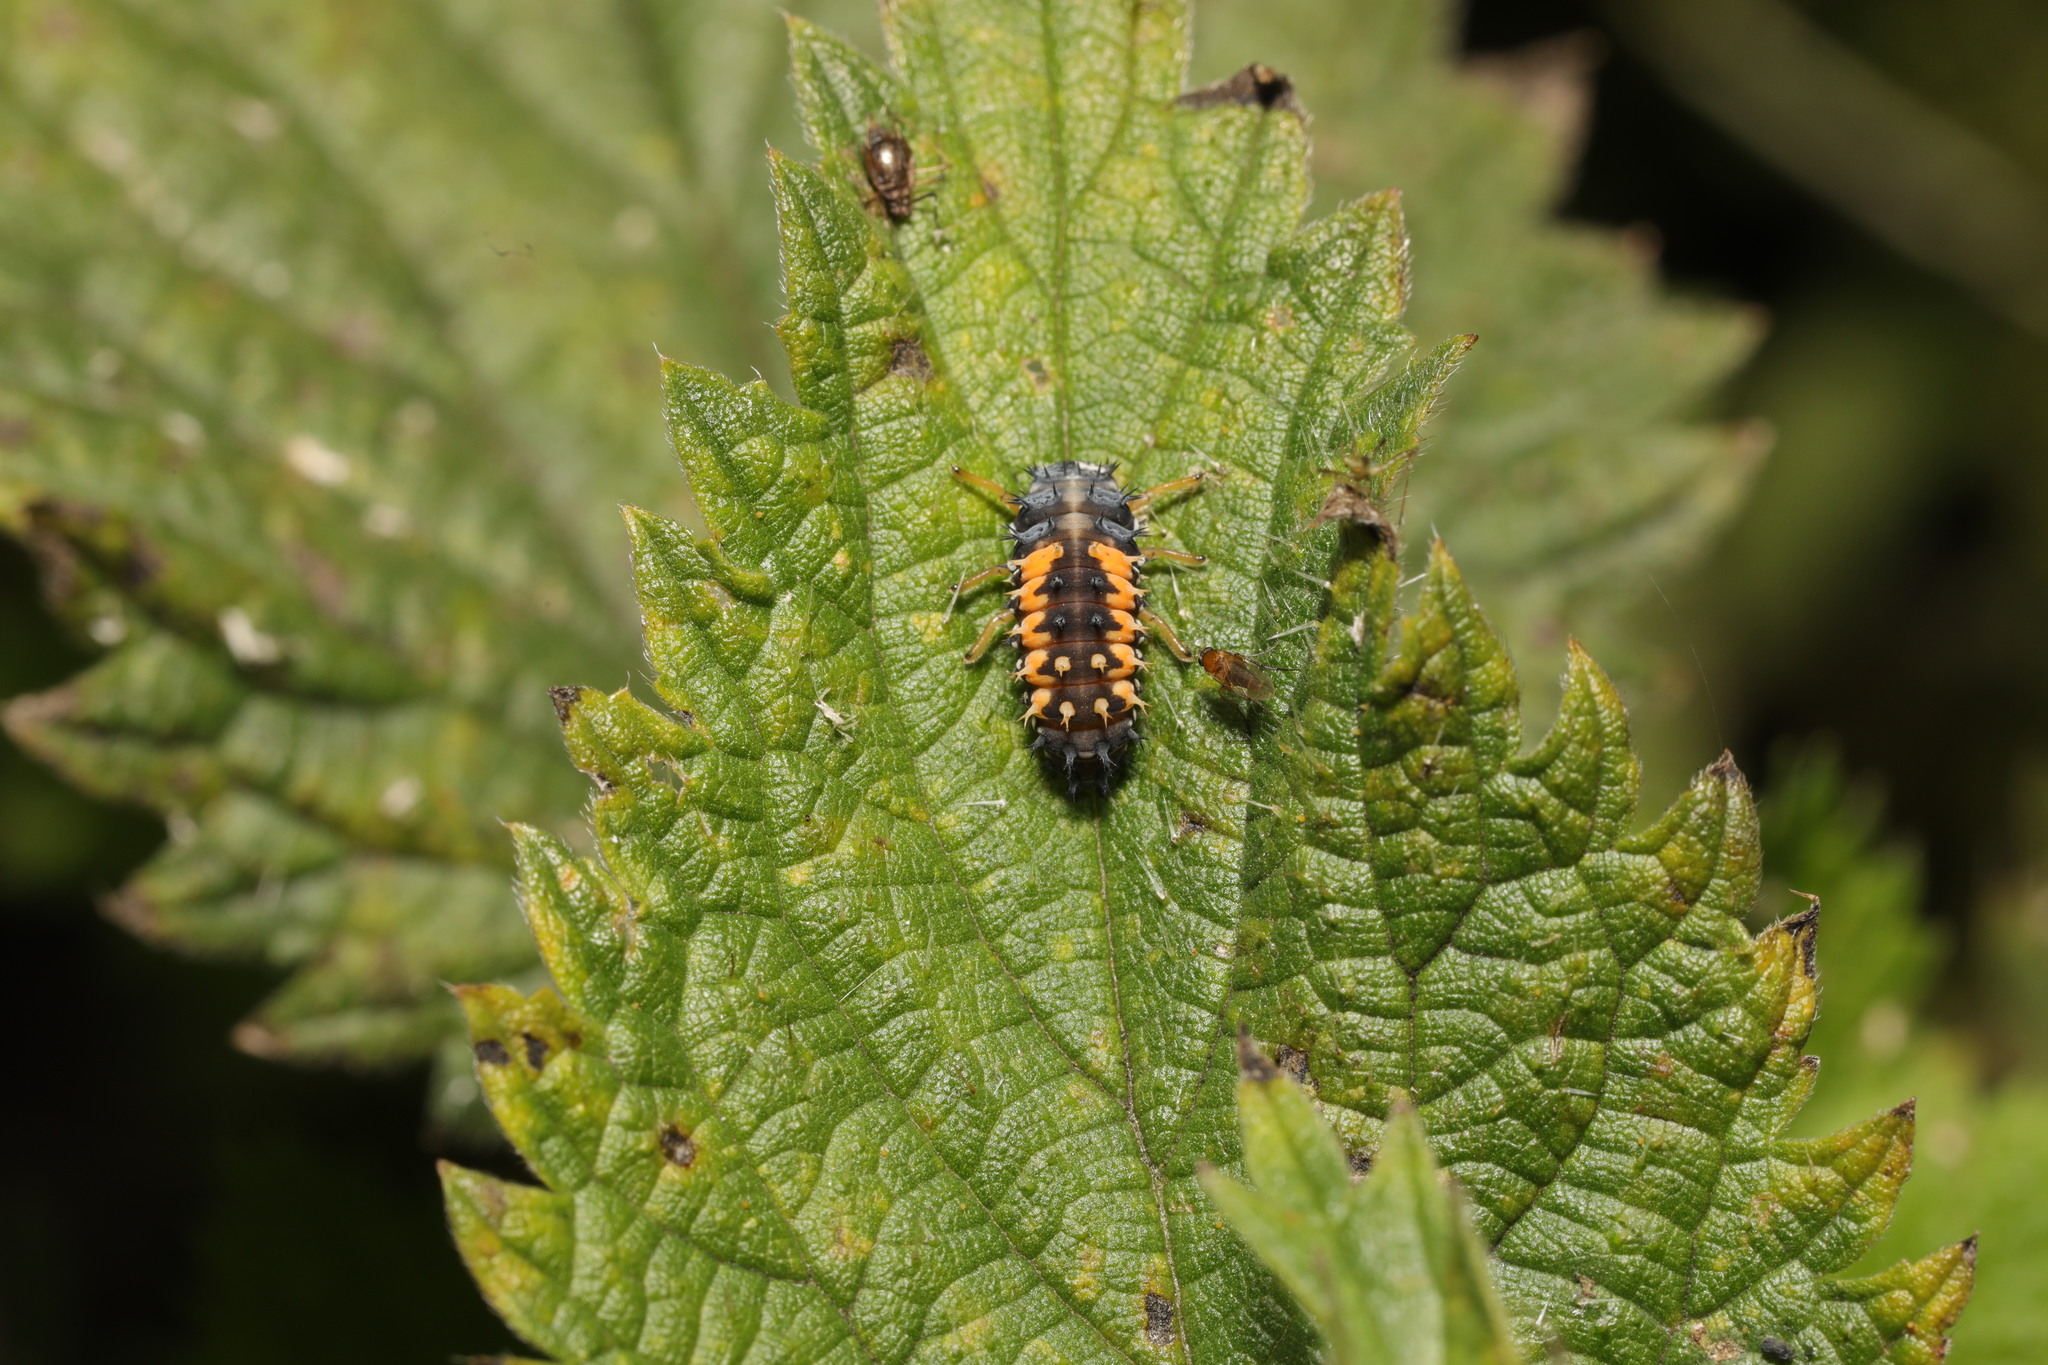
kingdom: Animalia
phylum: Arthropoda
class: Insecta
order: Coleoptera
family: Coccinellidae
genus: Harmonia
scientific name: Harmonia axyridis
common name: Harlequin ladybird
